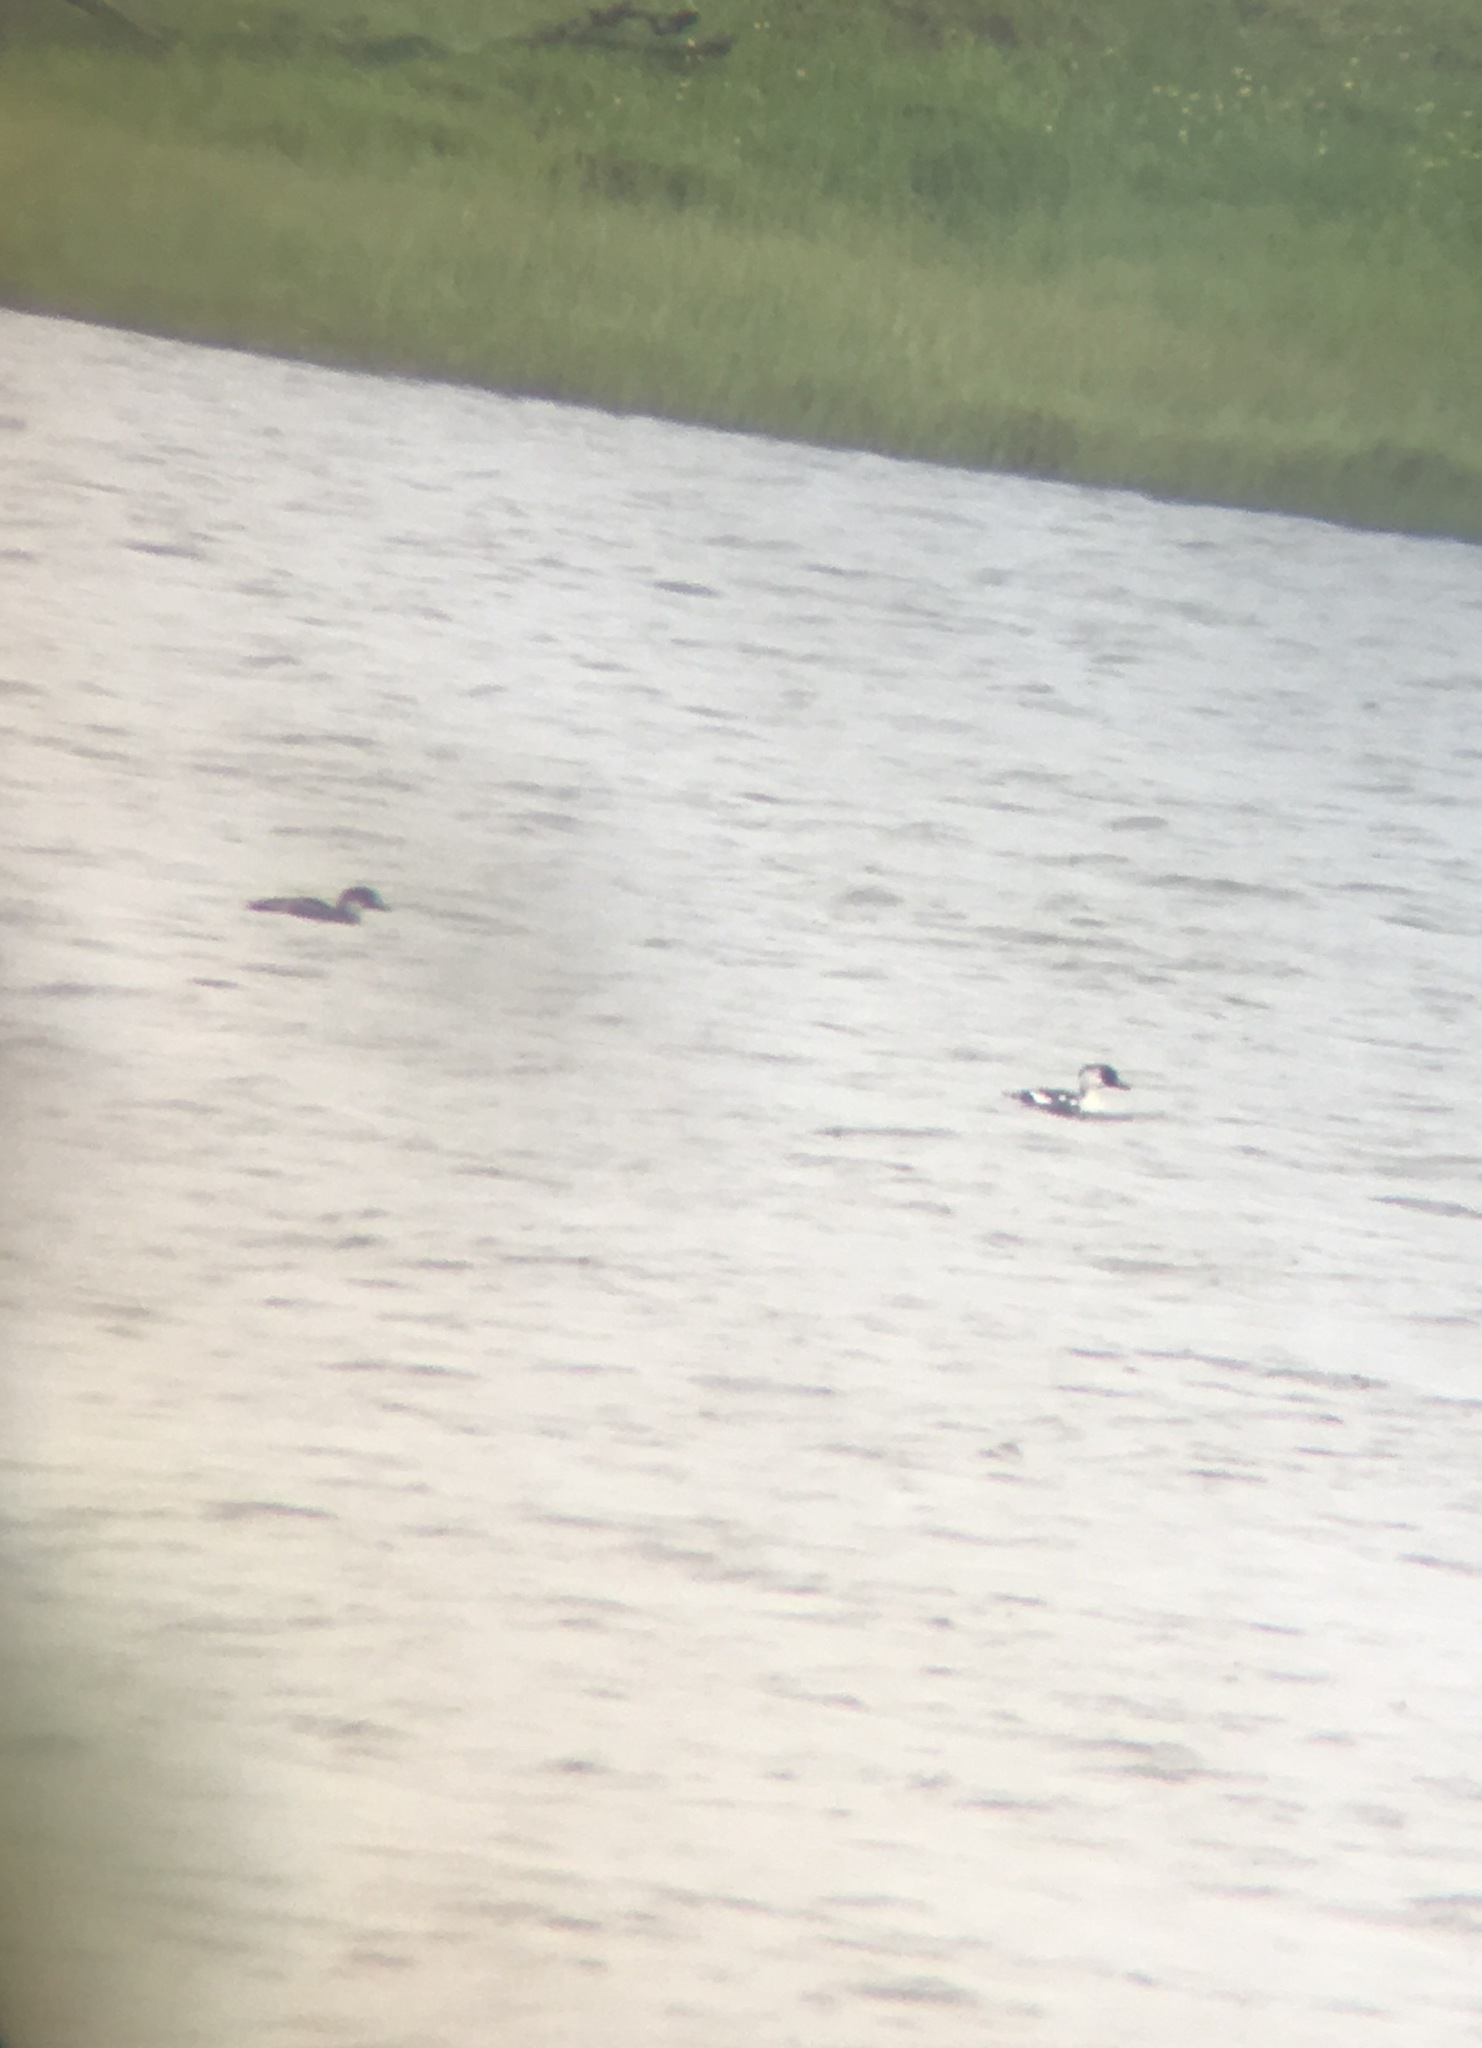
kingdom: Animalia
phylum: Chordata
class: Aves
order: Anseriformes
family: Anatidae
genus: Mergellus
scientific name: Mergellus albellus
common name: Smew
